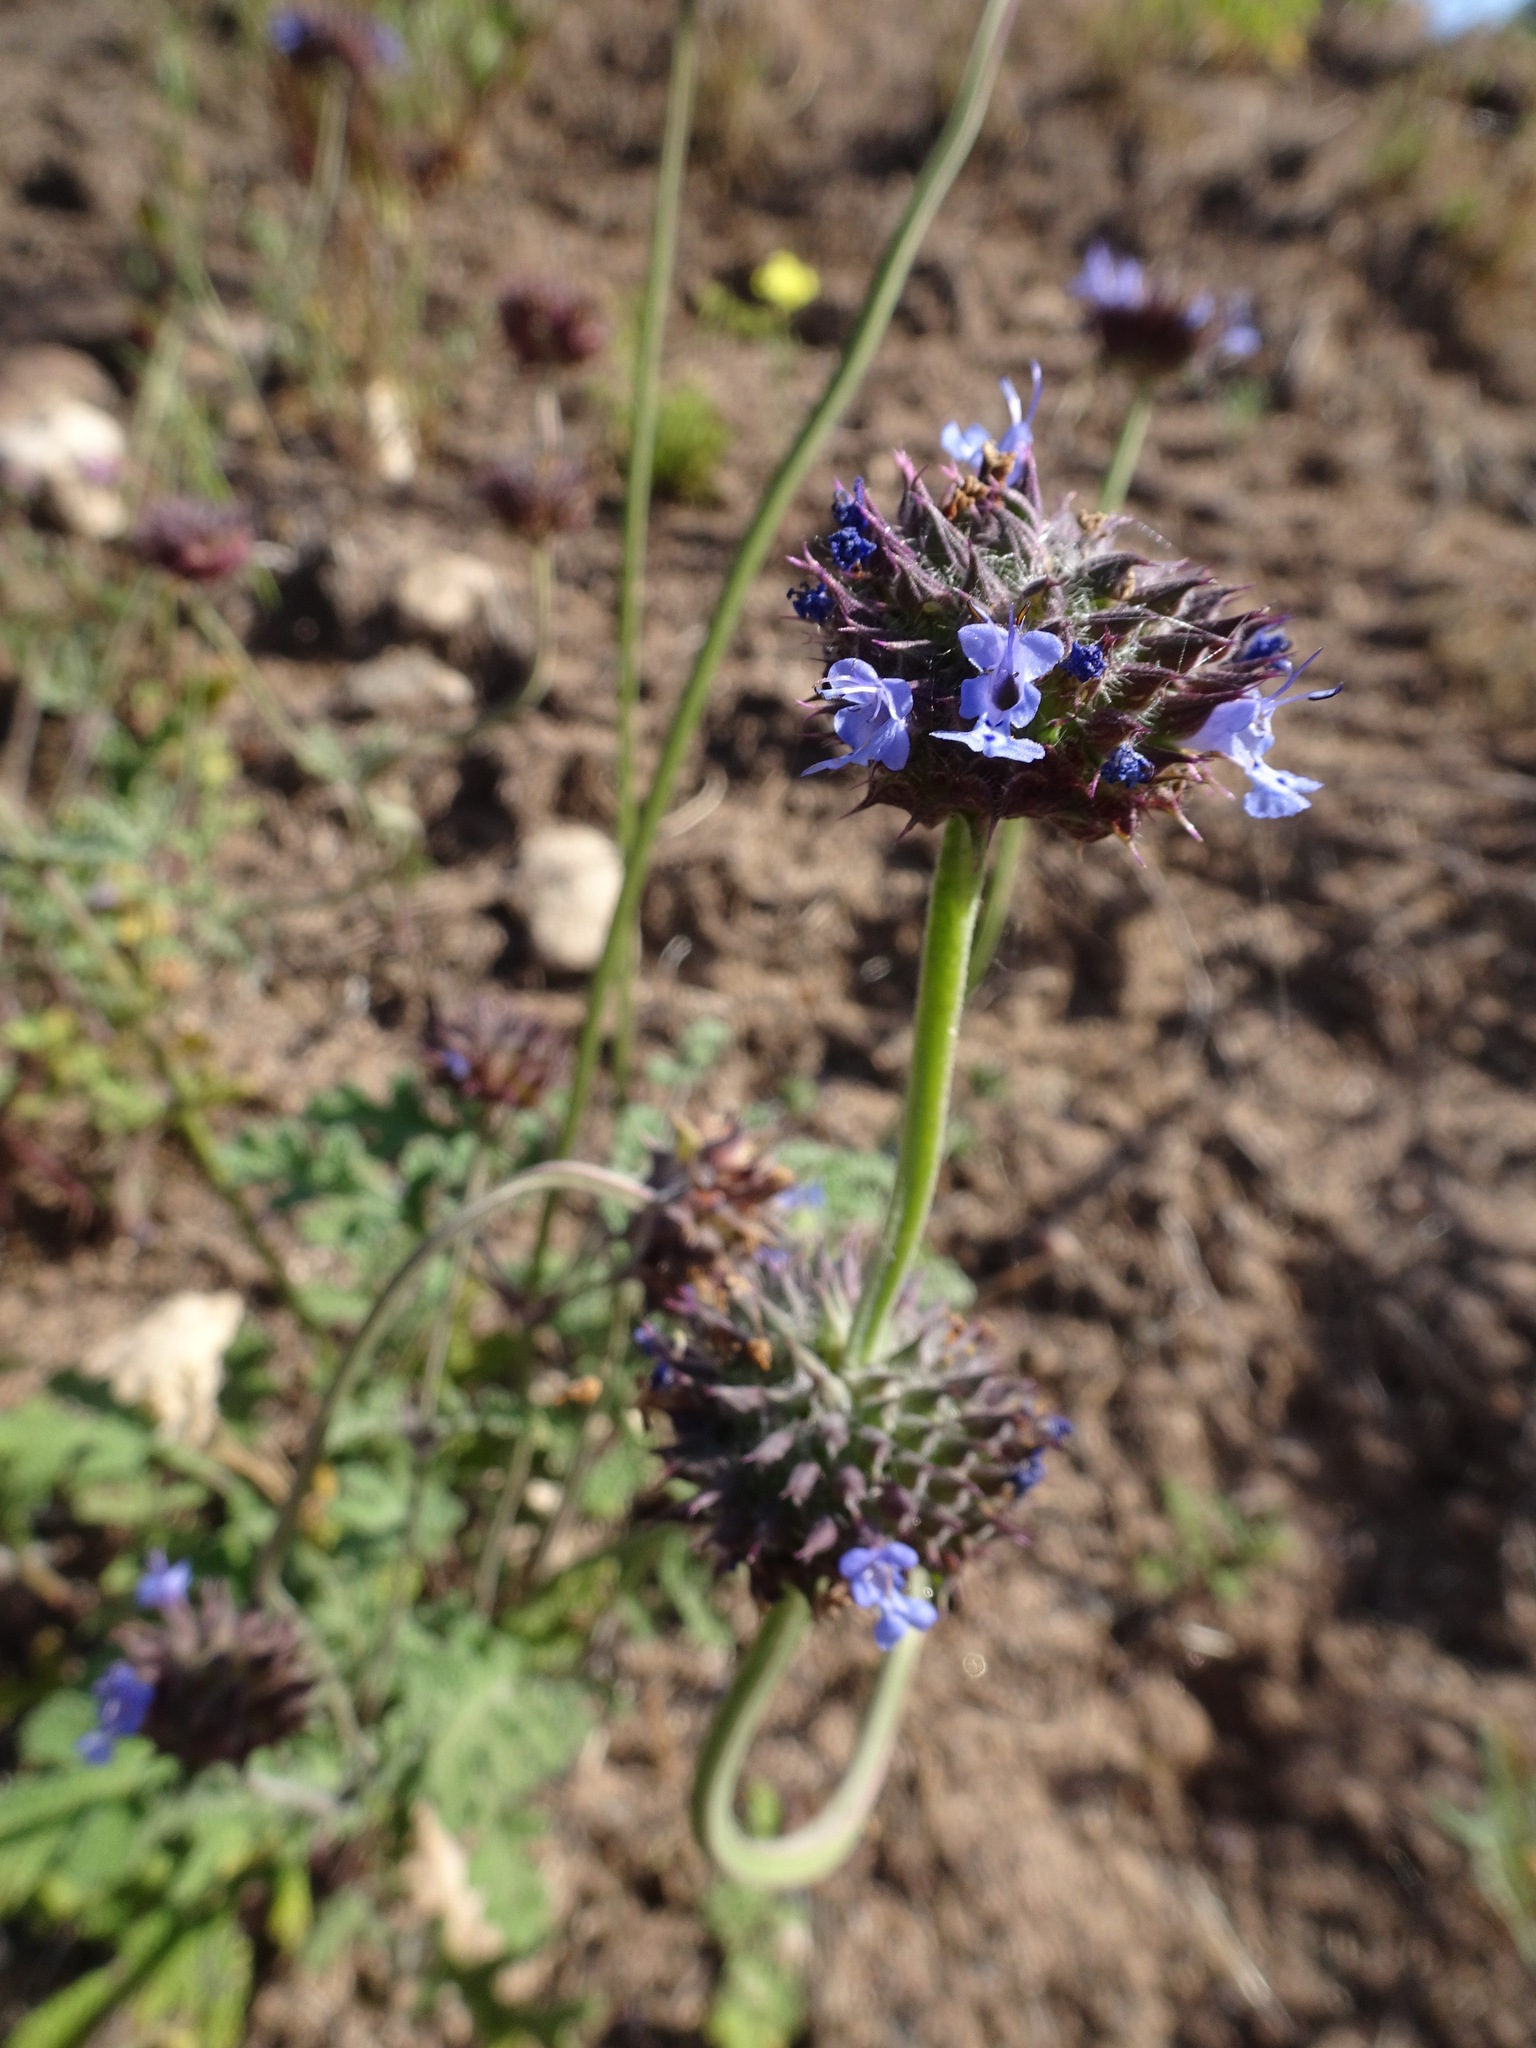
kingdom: Plantae
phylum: Tracheophyta
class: Magnoliopsida
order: Lamiales
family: Lamiaceae
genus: Salvia
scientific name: Salvia columbariae
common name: Chia
